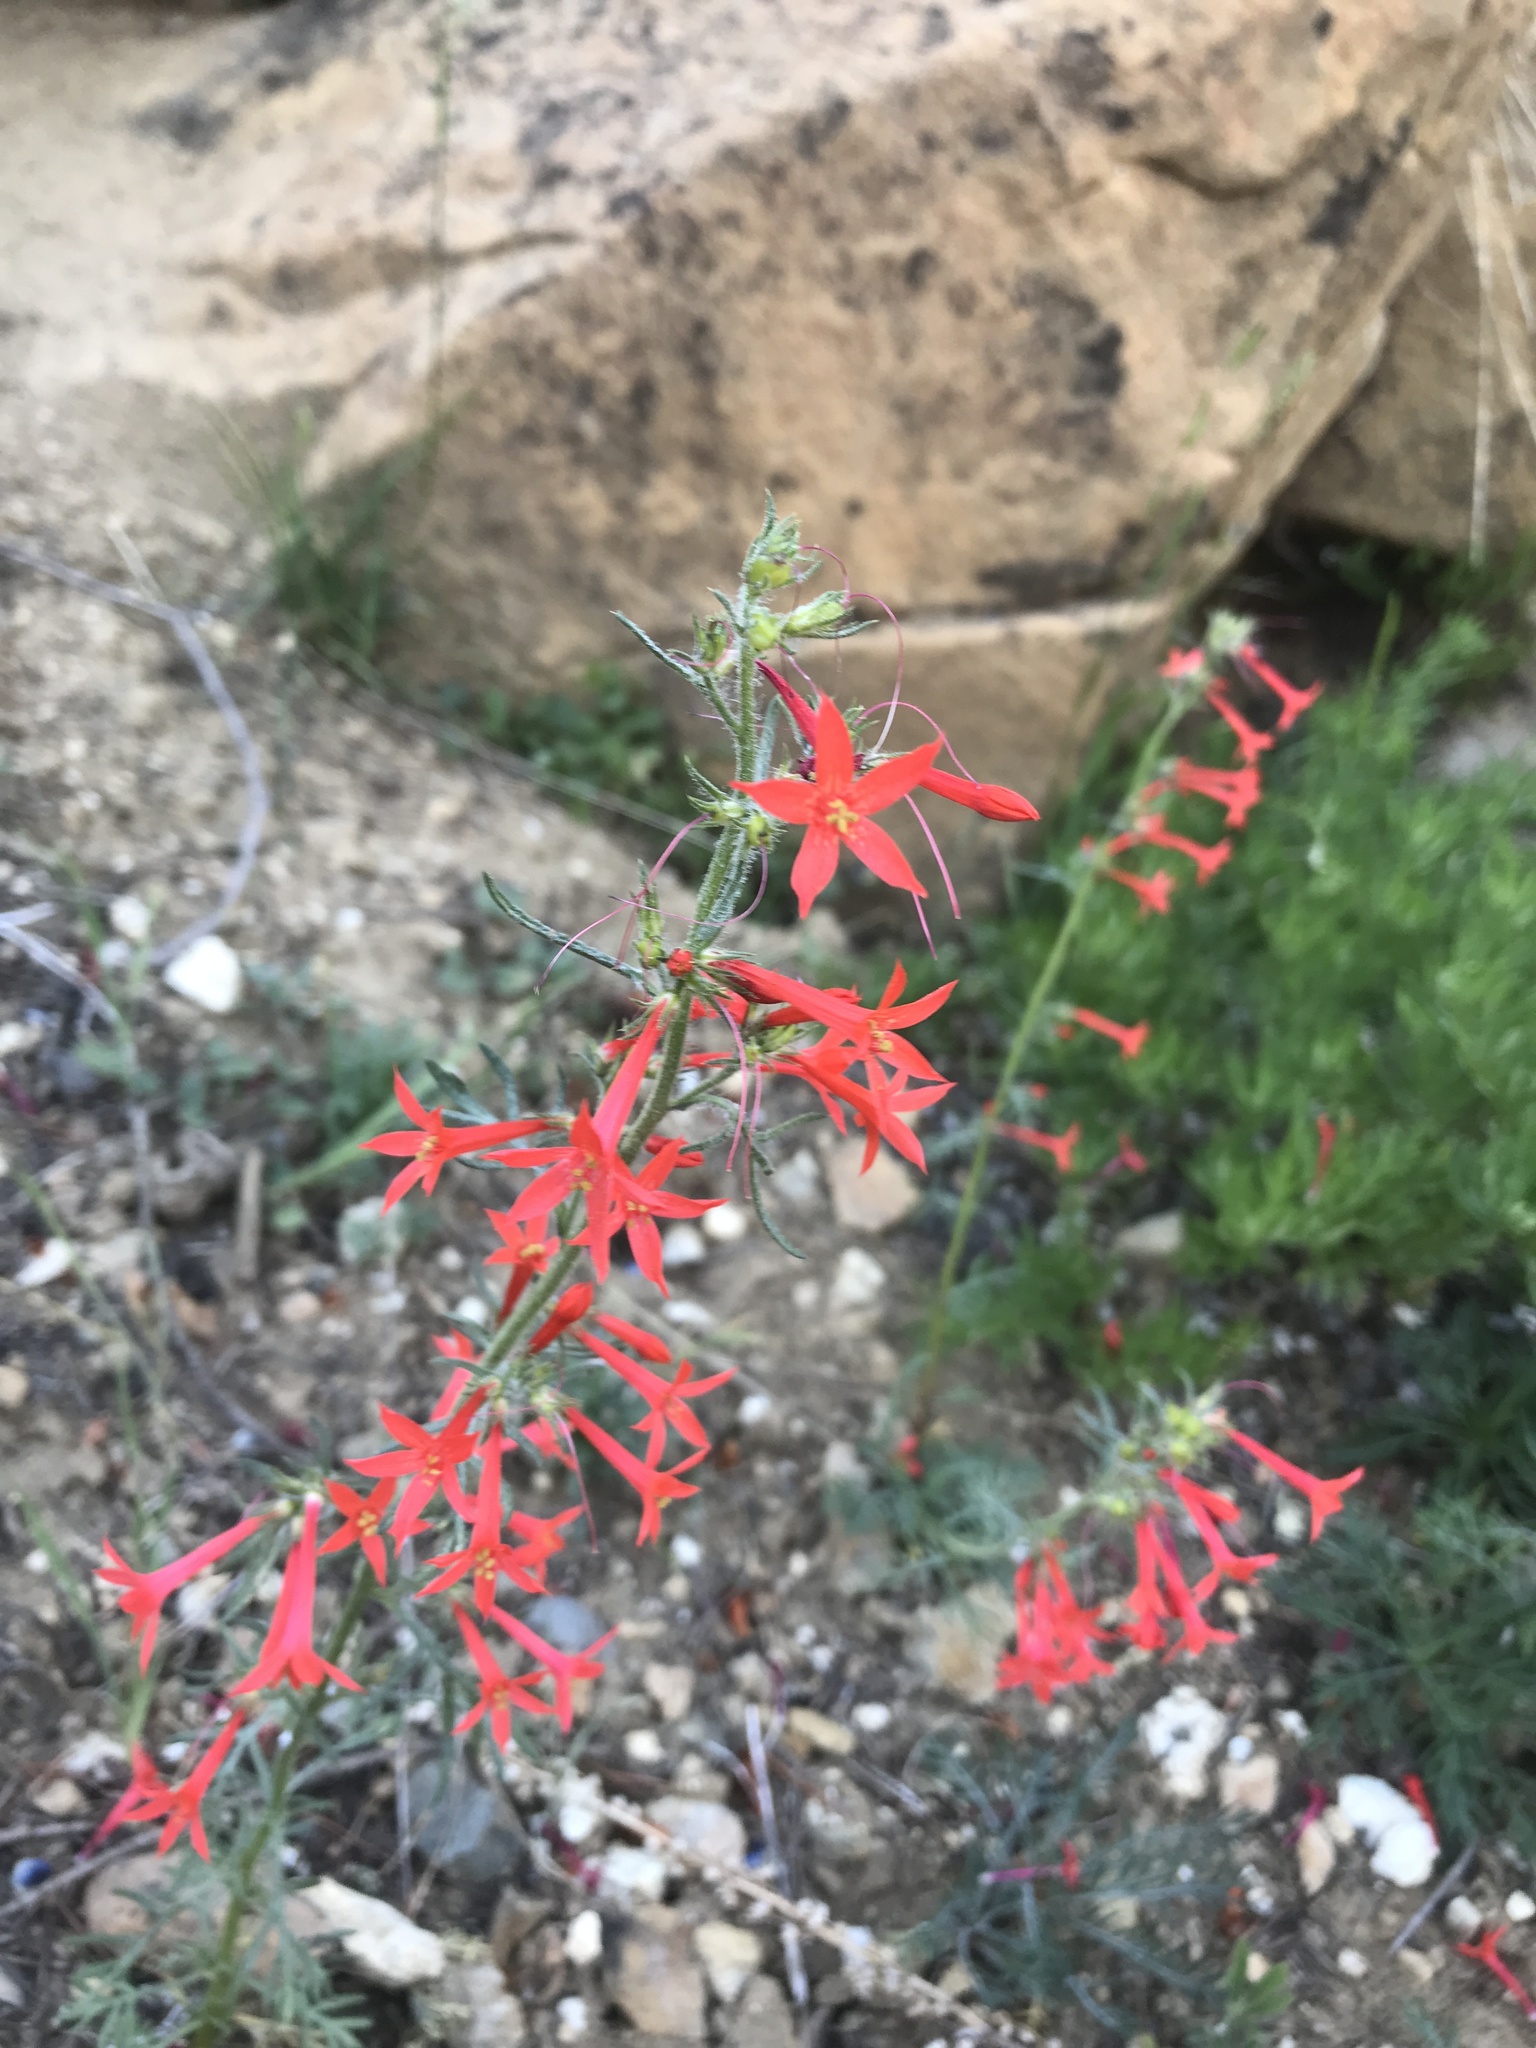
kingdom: Plantae
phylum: Tracheophyta
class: Magnoliopsida
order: Ericales
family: Polemoniaceae
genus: Ipomopsis
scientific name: Ipomopsis aggregata
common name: Scarlet gilia
